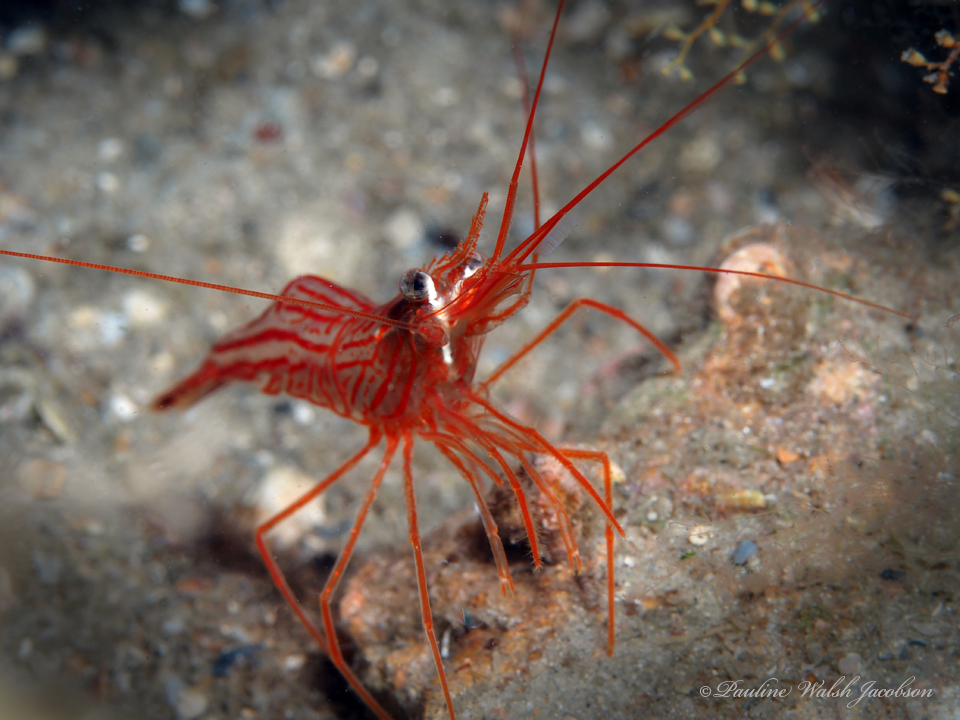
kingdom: Animalia
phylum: Arthropoda
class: Malacostraca
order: Decapoda
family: Lysmatidae
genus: Lysmata
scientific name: Lysmata rafa
